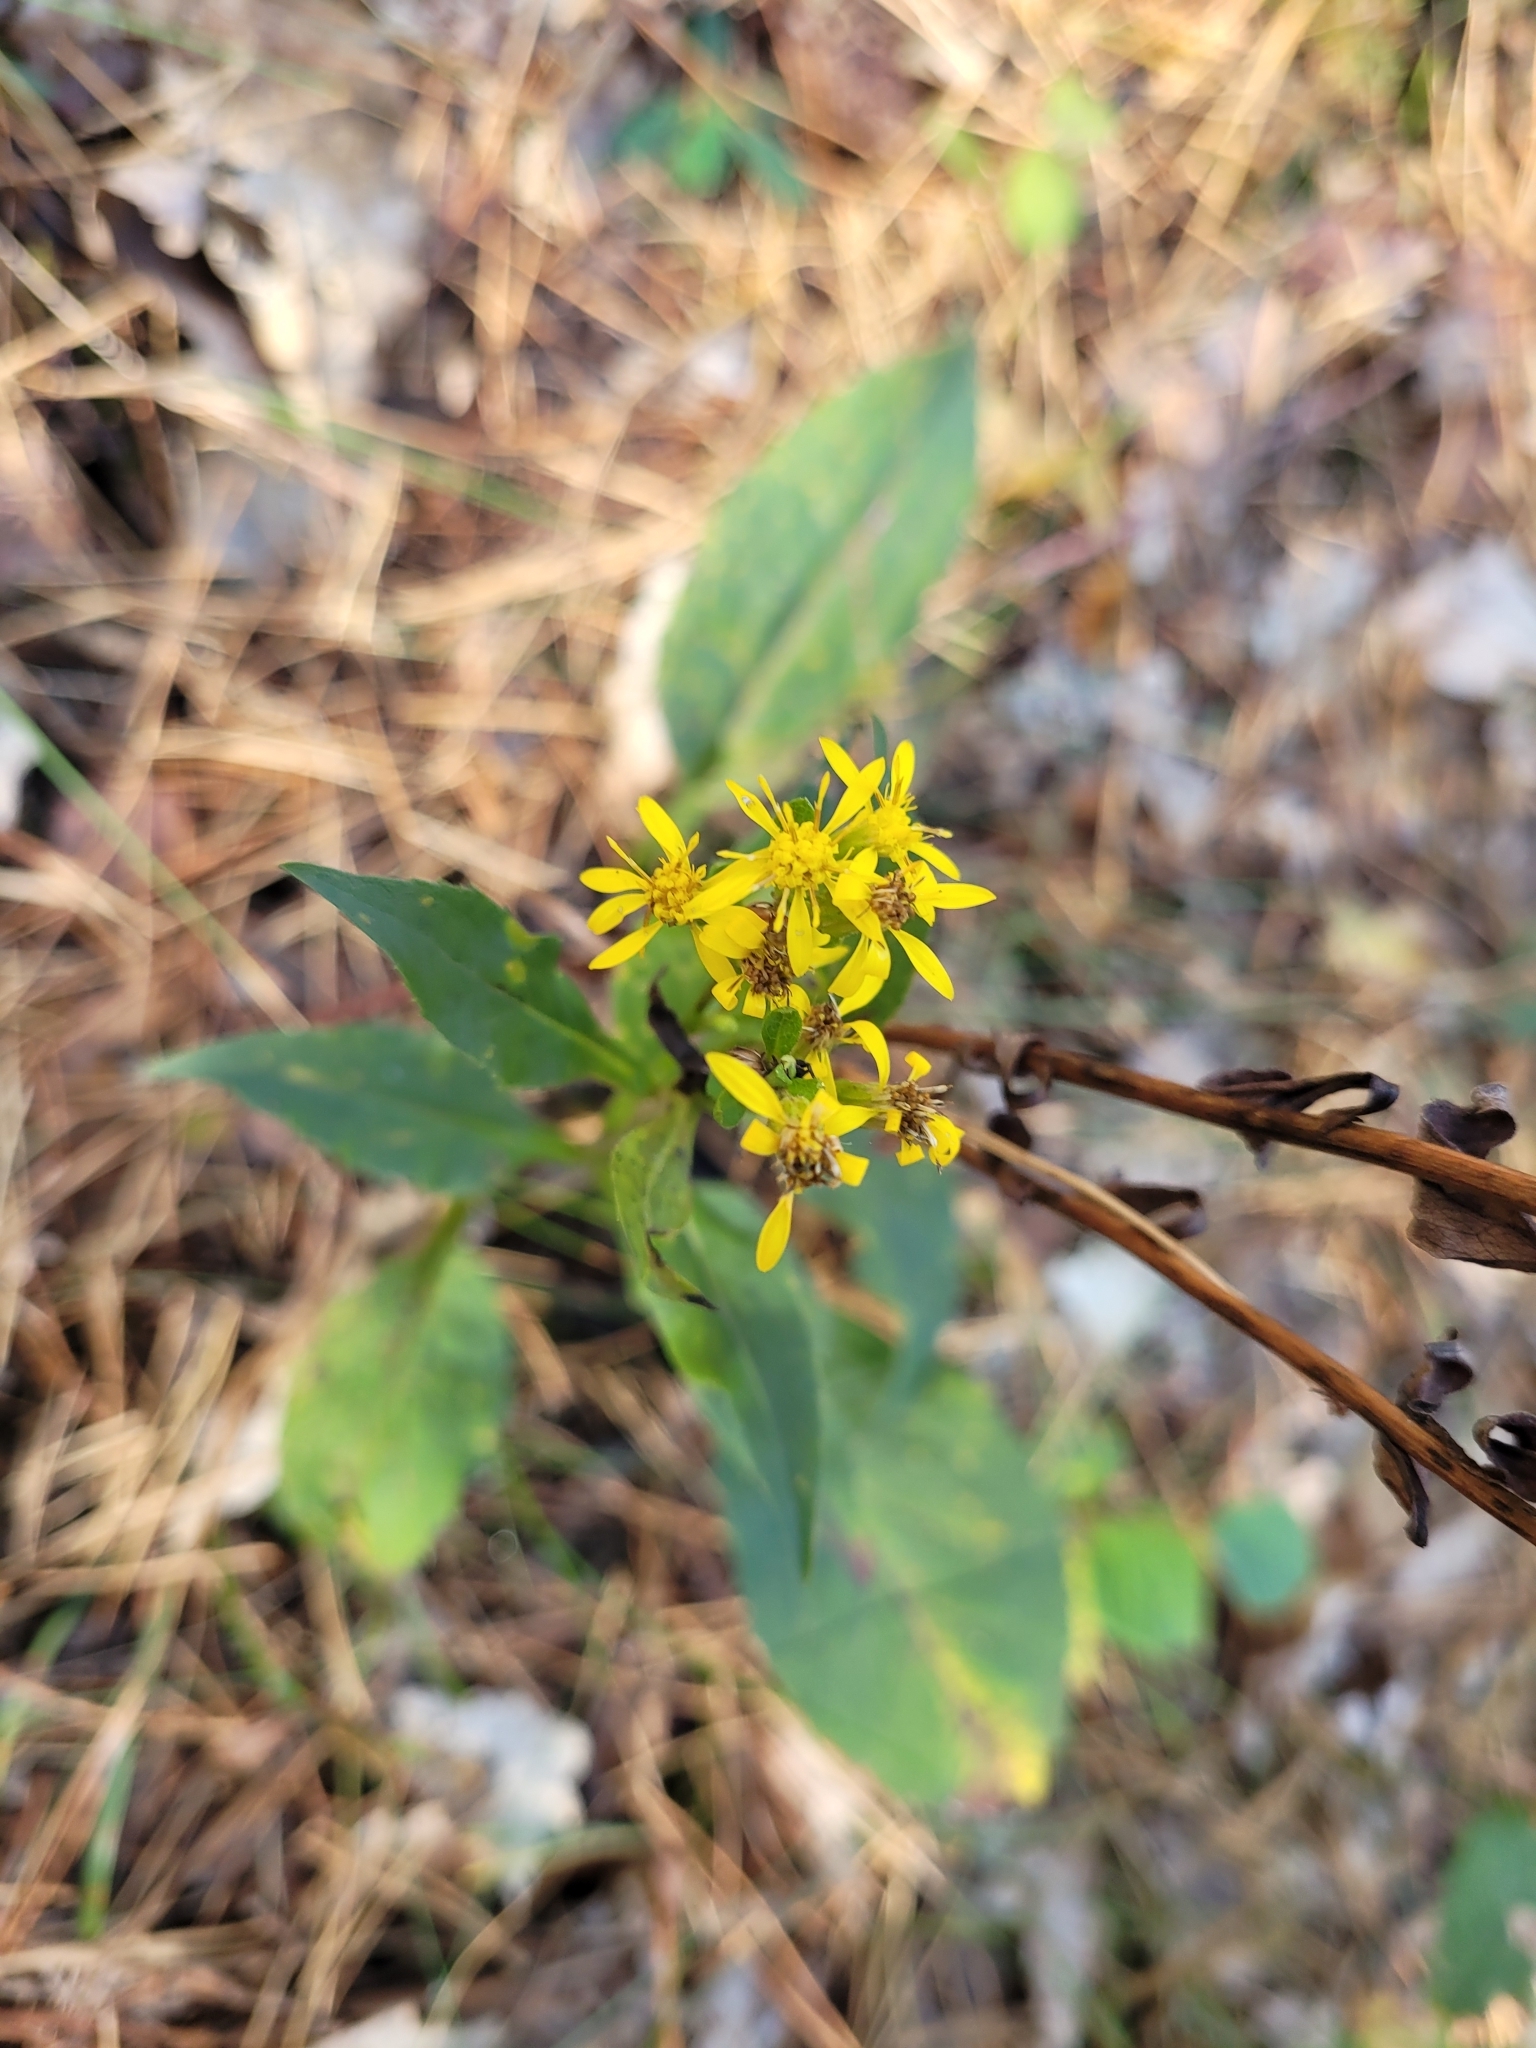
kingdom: Plantae
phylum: Tracheophyta
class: Magnoliopsida
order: Asterales
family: Asteraceae
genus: Solidago
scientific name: Solidago virgaurea
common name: Goldenrod
